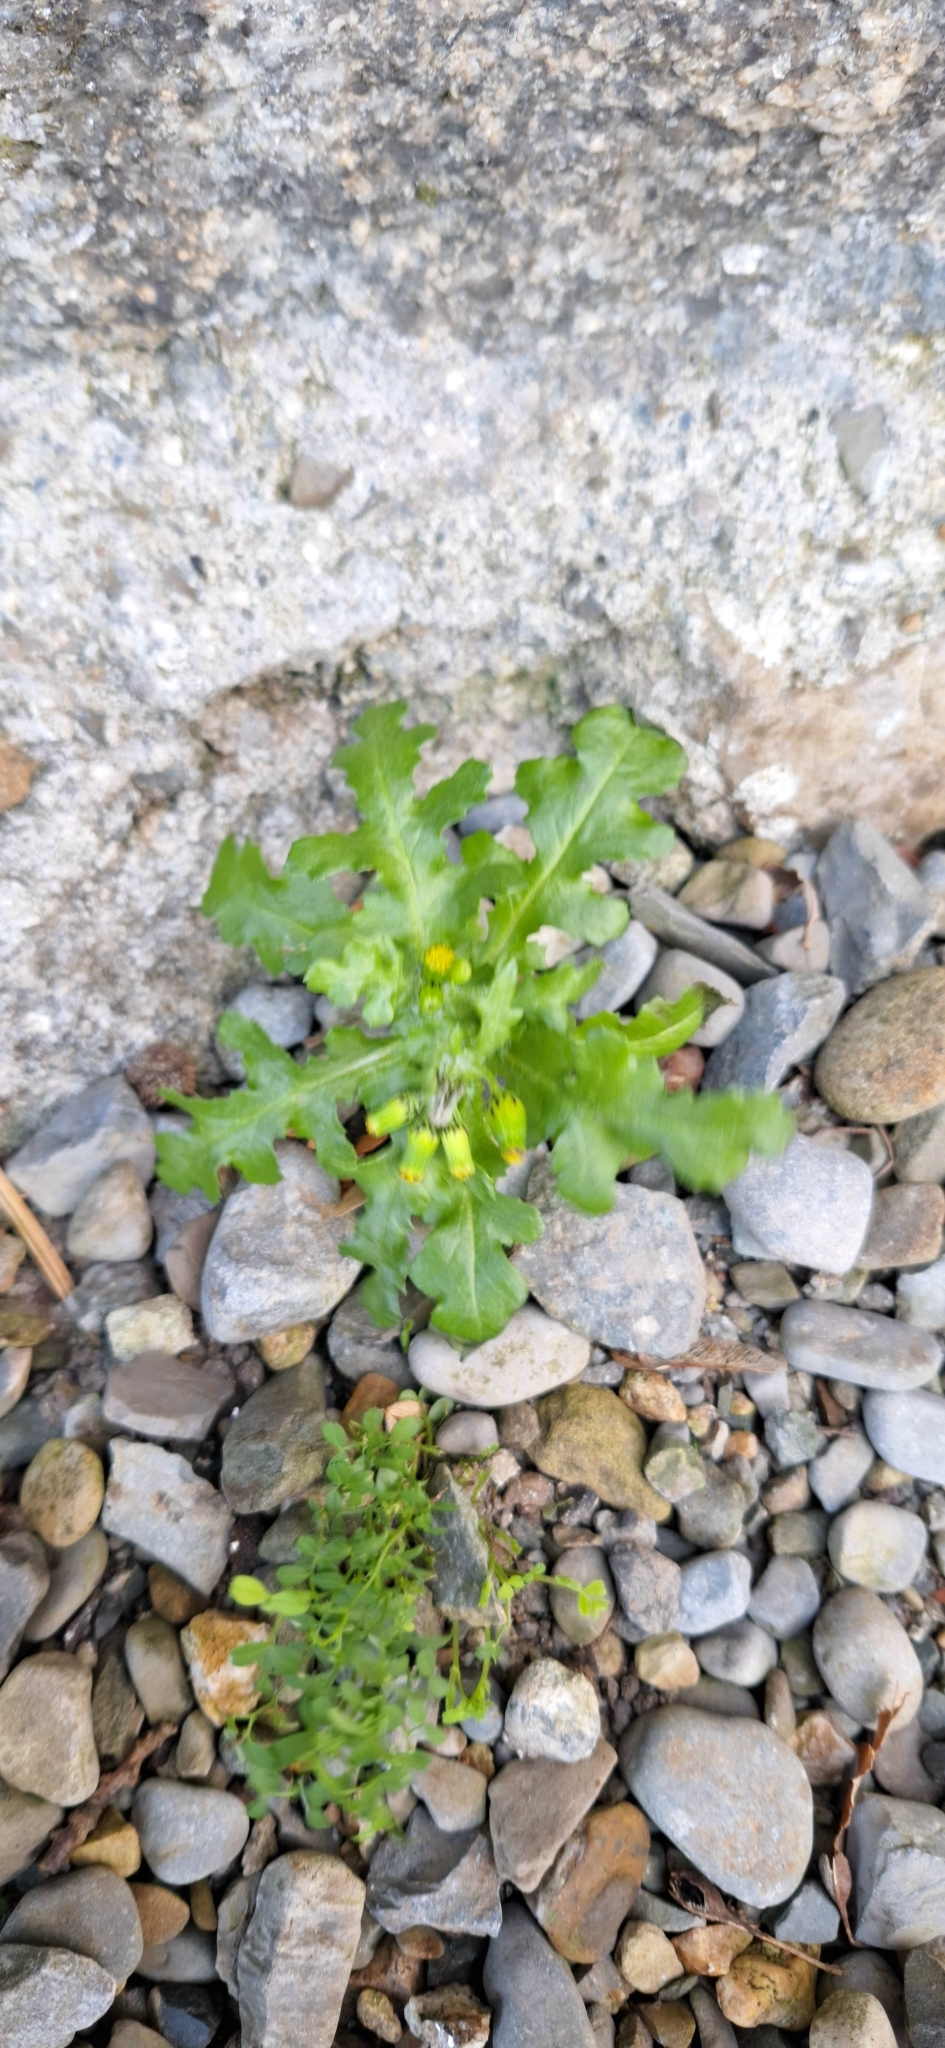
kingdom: Plantae
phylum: Tracheophyta
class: Magnoliopsida
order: Asterales
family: Asteraceae
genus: Senecio
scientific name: Senecio vulgaris
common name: Old-man-in-the-spring
